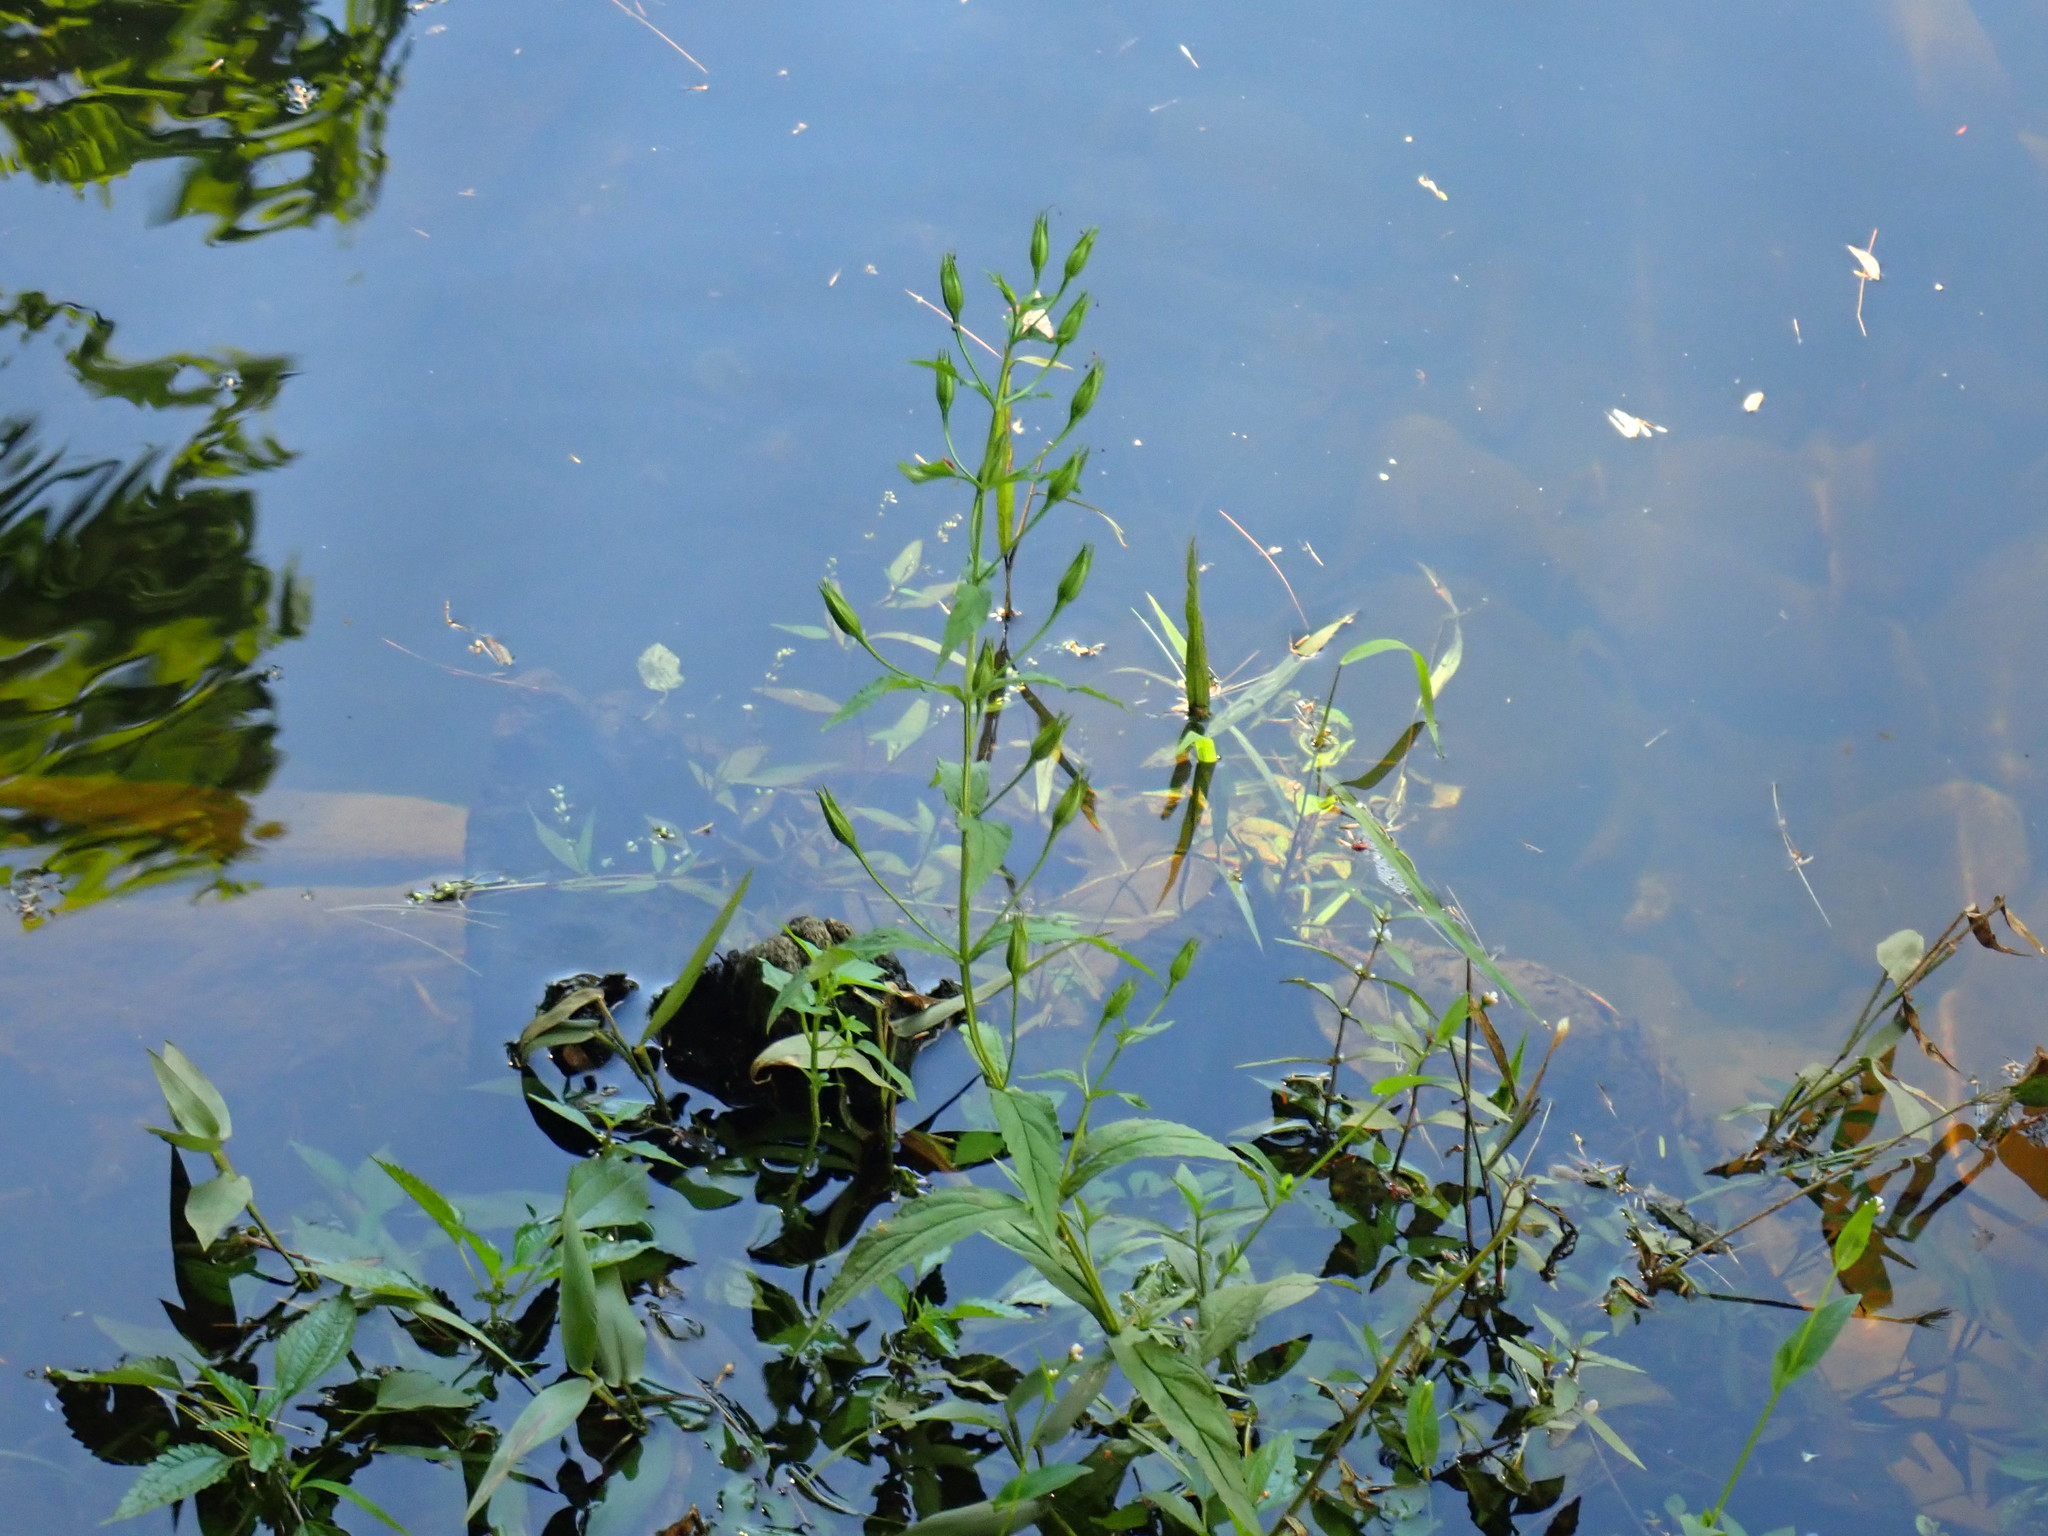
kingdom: Plantae
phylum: Tracheophyta
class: Magnoliopsida
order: Lamiales
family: Phrymaceae
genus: Mimulus
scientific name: Mimulus ringens
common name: Allegheny monkeyflower
